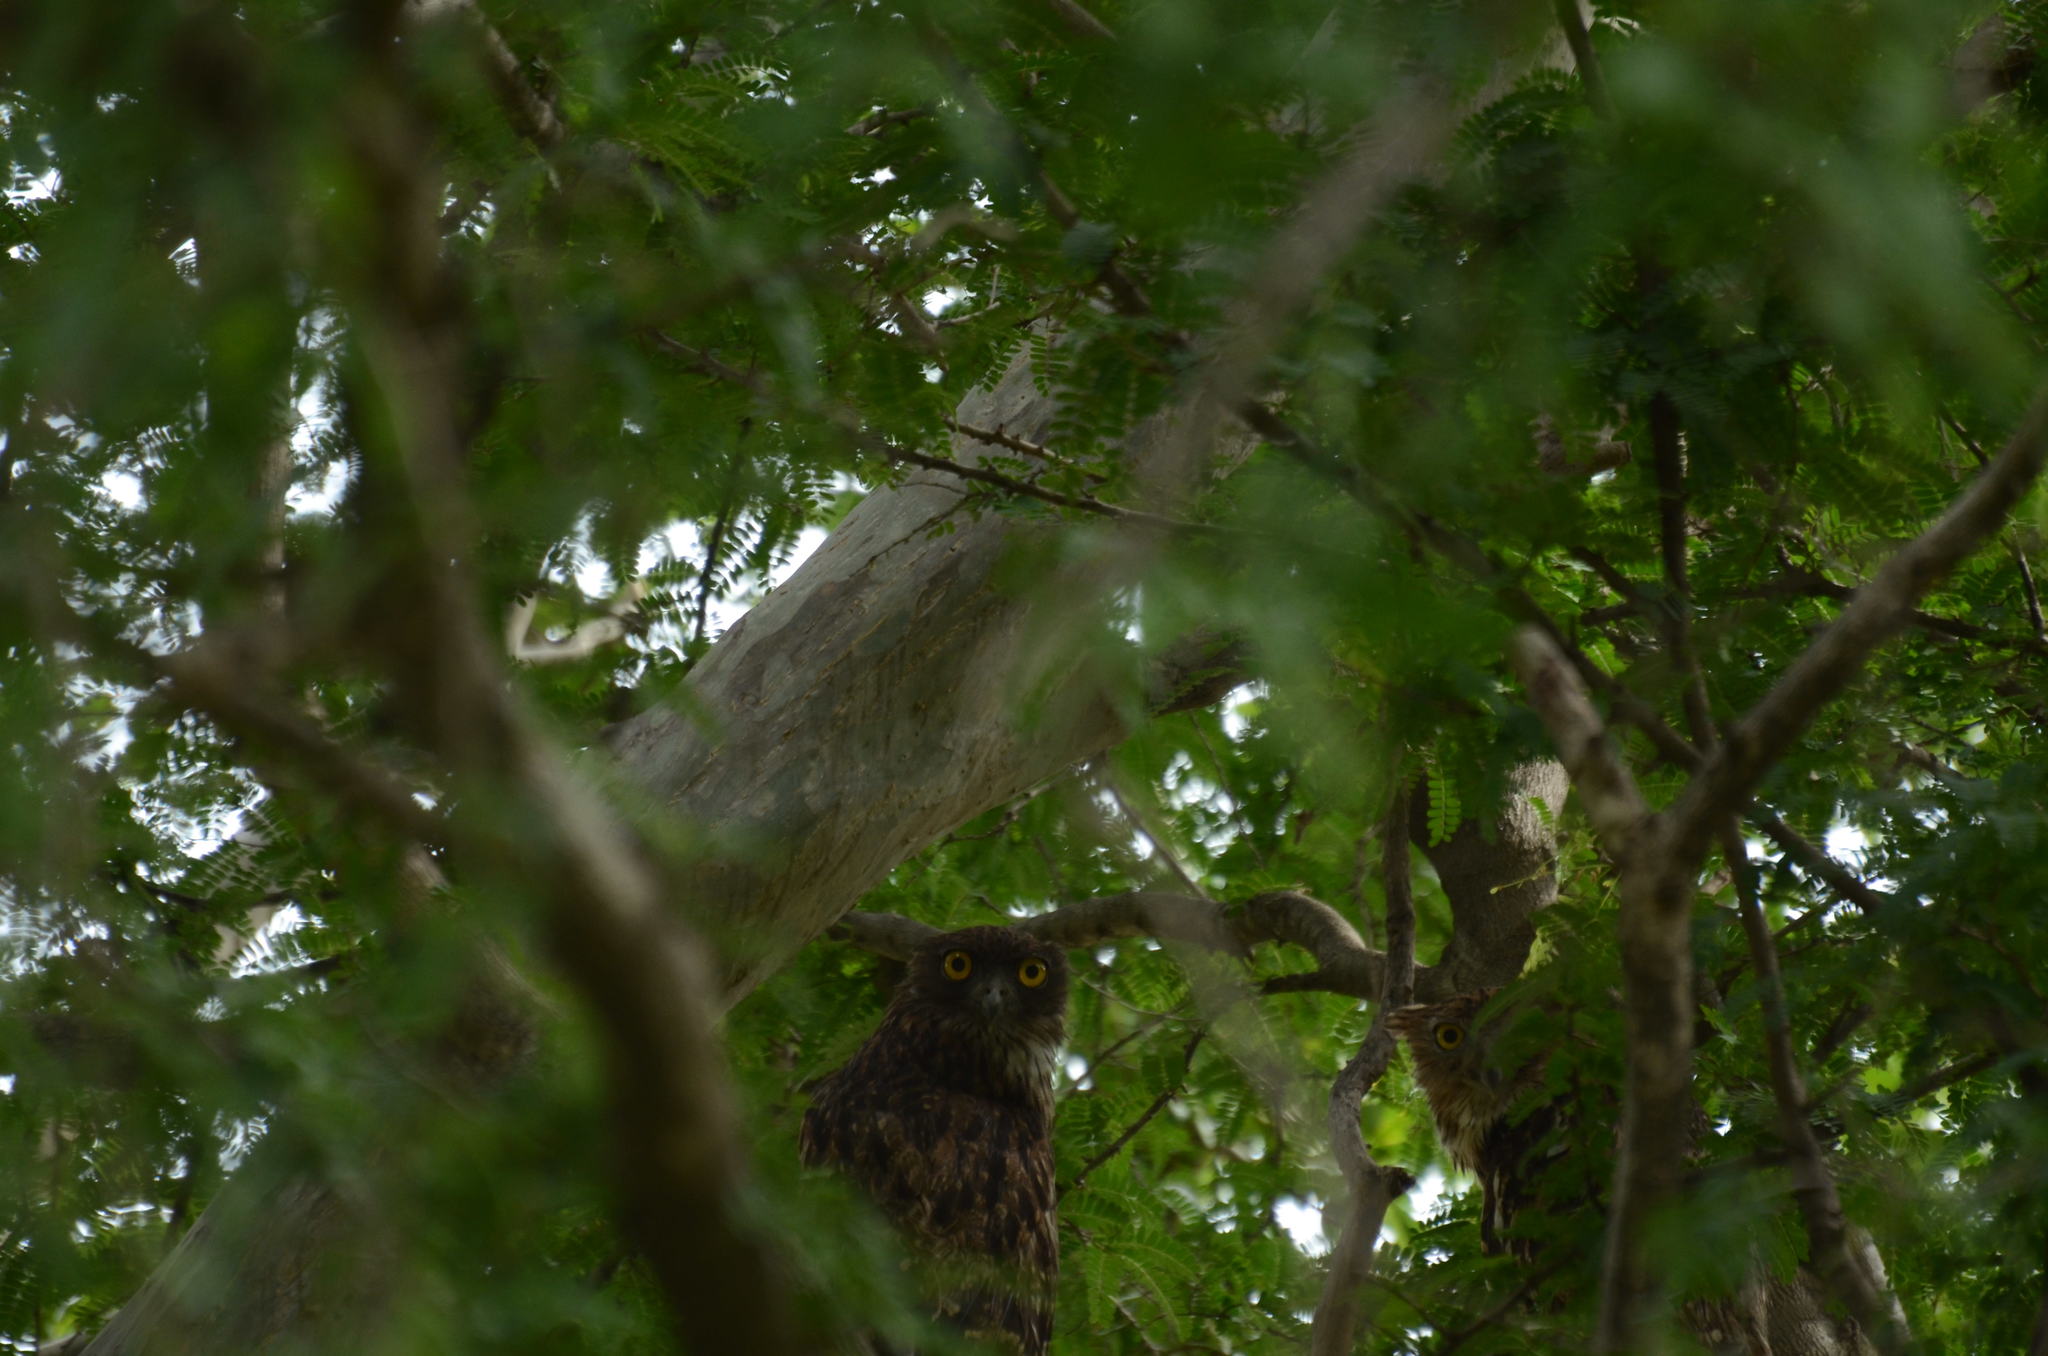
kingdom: Animalia
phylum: Chordata
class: Aves
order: Strigiformes
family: Strigidae
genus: Ketupa
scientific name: Ketupa zeylonensis
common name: Brown fish owl
